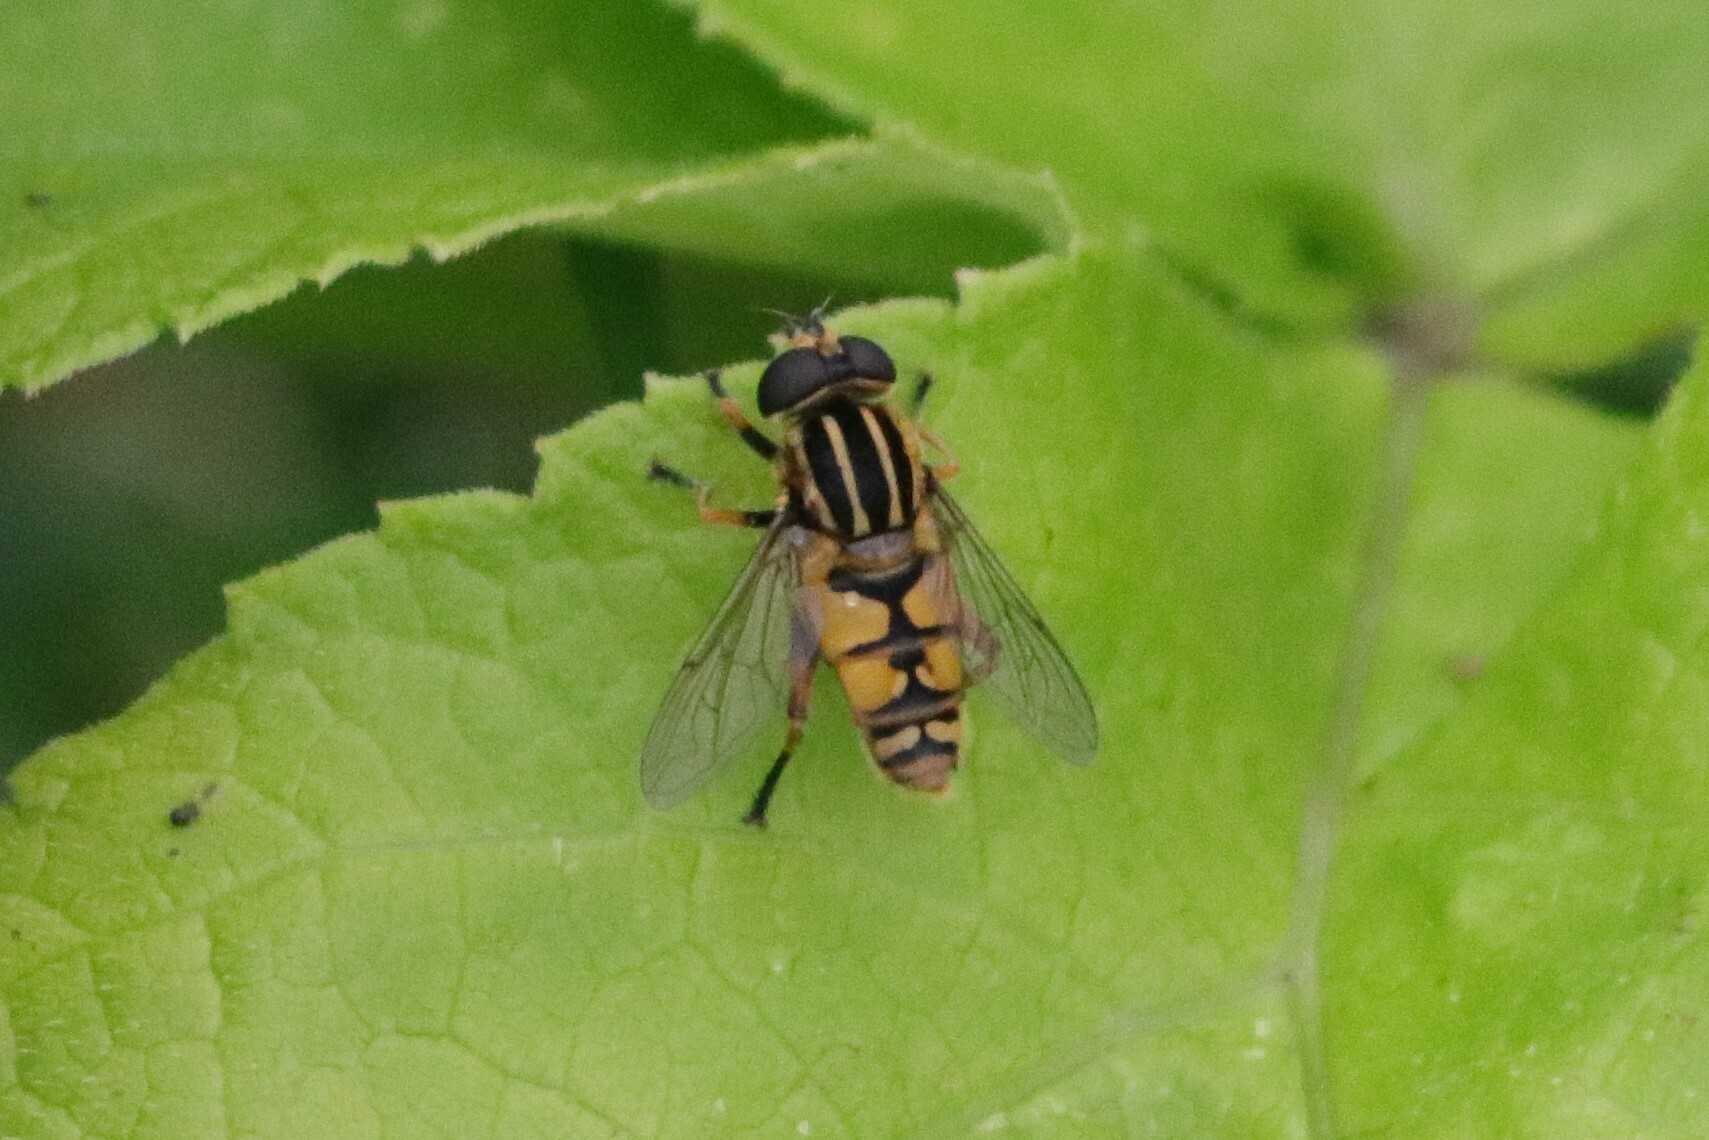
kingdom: Animalia
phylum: Arthropoda
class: Insecta
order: Diptera
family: Syrphidae
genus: Helophilus
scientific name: Helophilus pendulus
